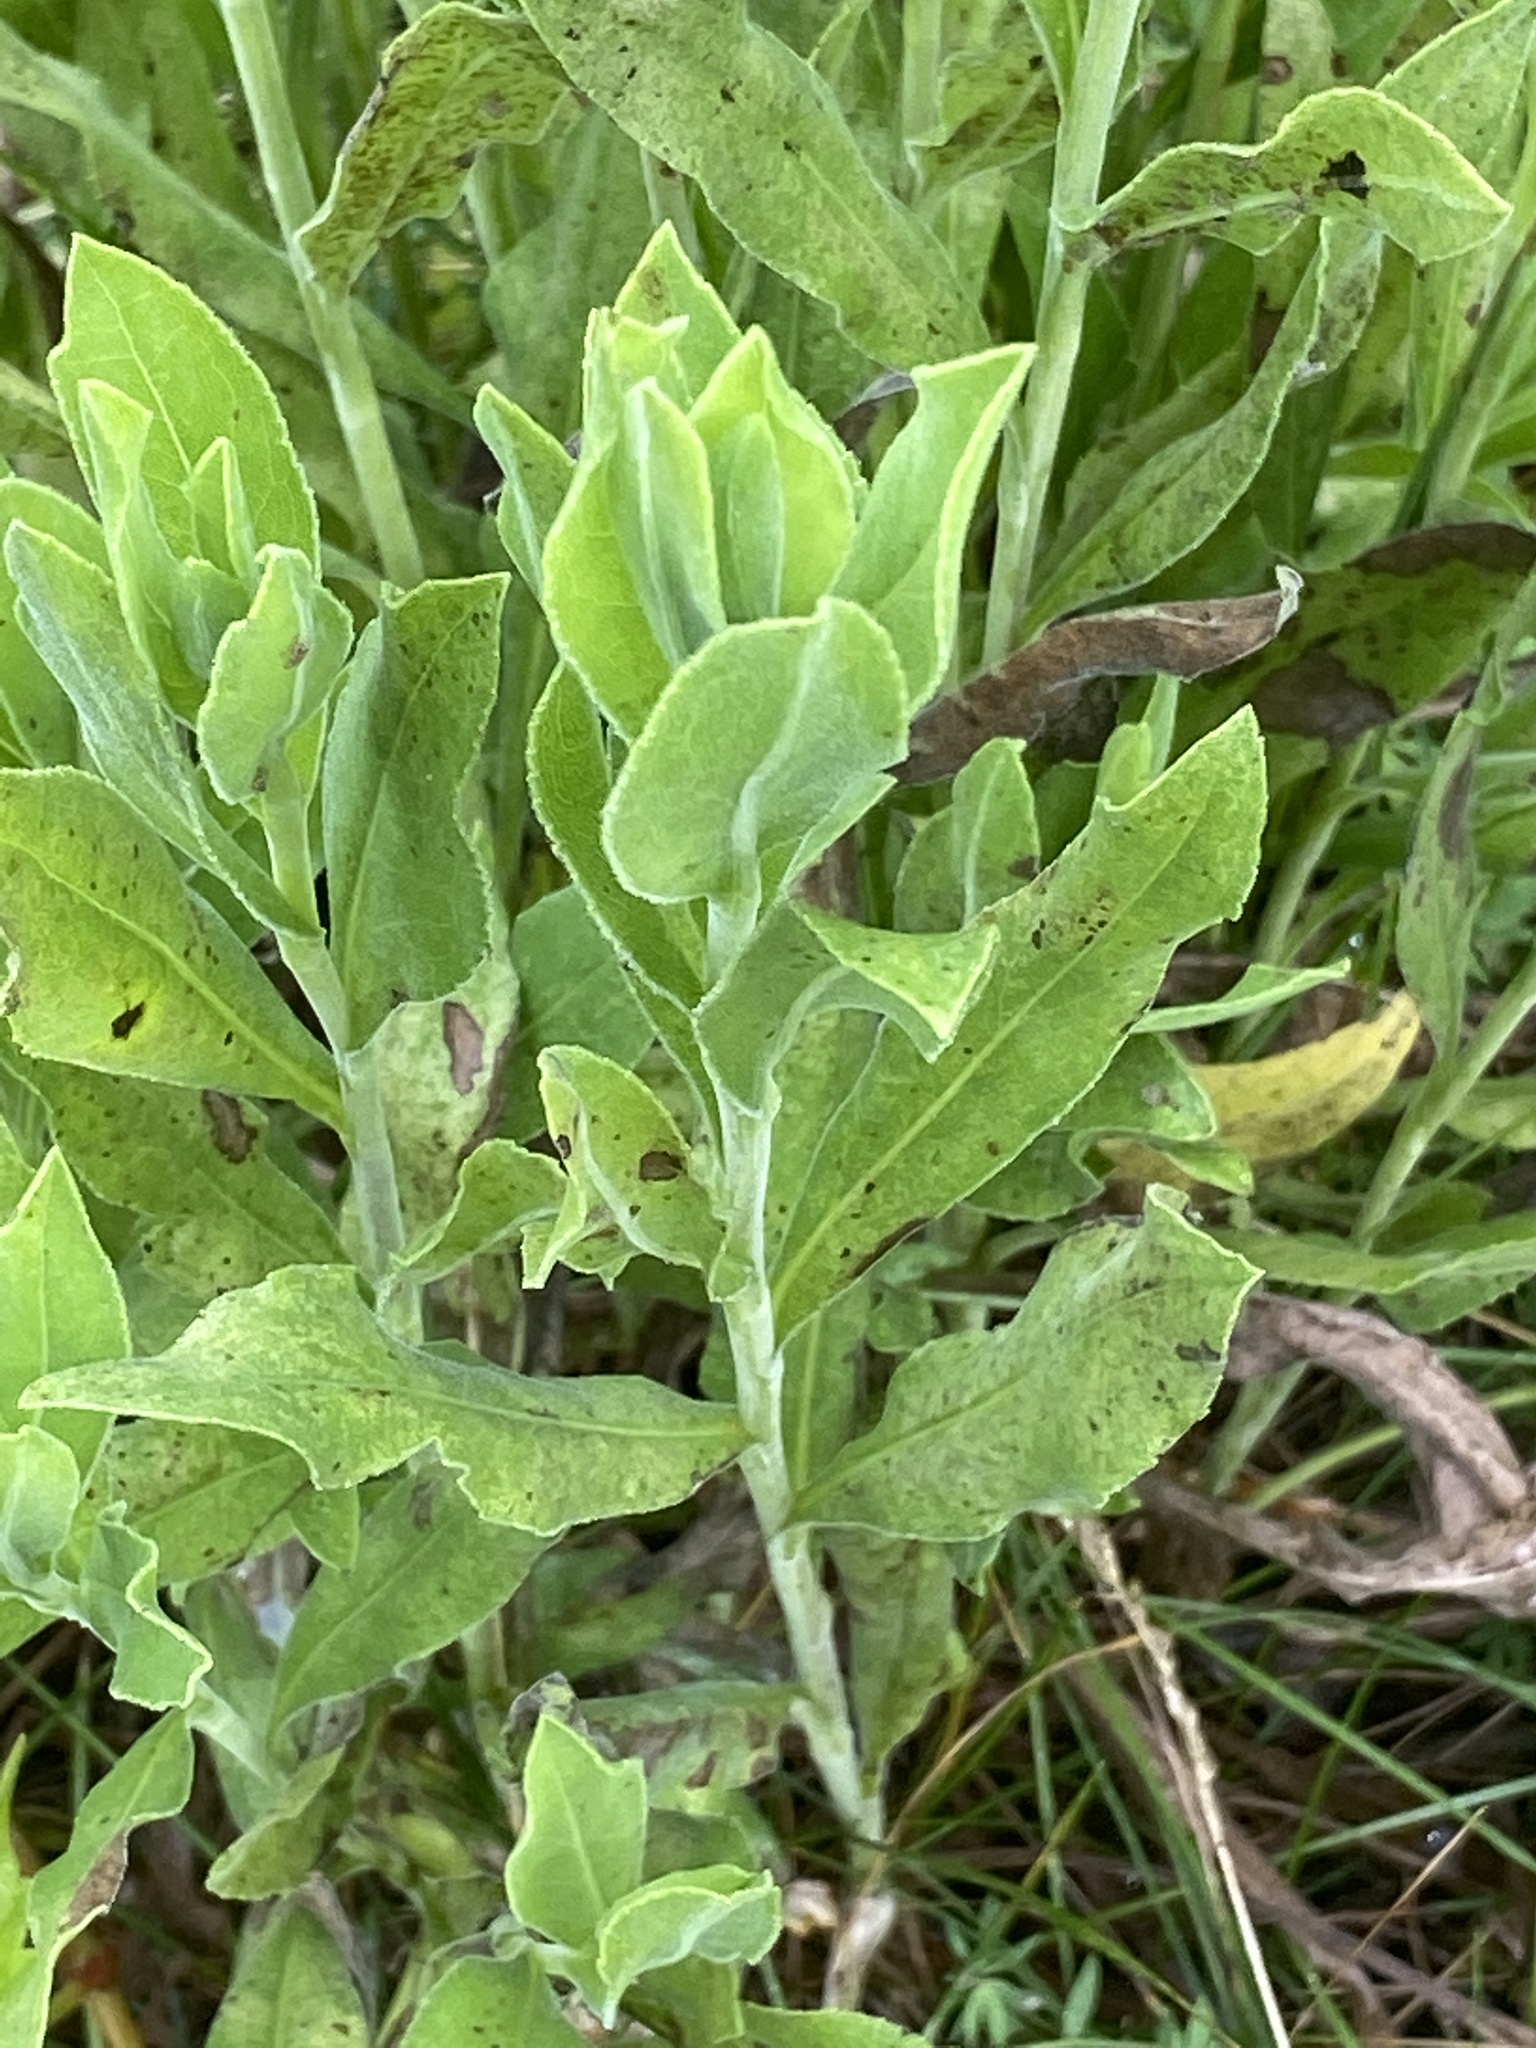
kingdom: Plantae
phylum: Tracheophyta
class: Magnoliopsida
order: Asterales
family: Asteraceae
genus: Solidago
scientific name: Solidago rigida
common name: Rigid goldenrod
